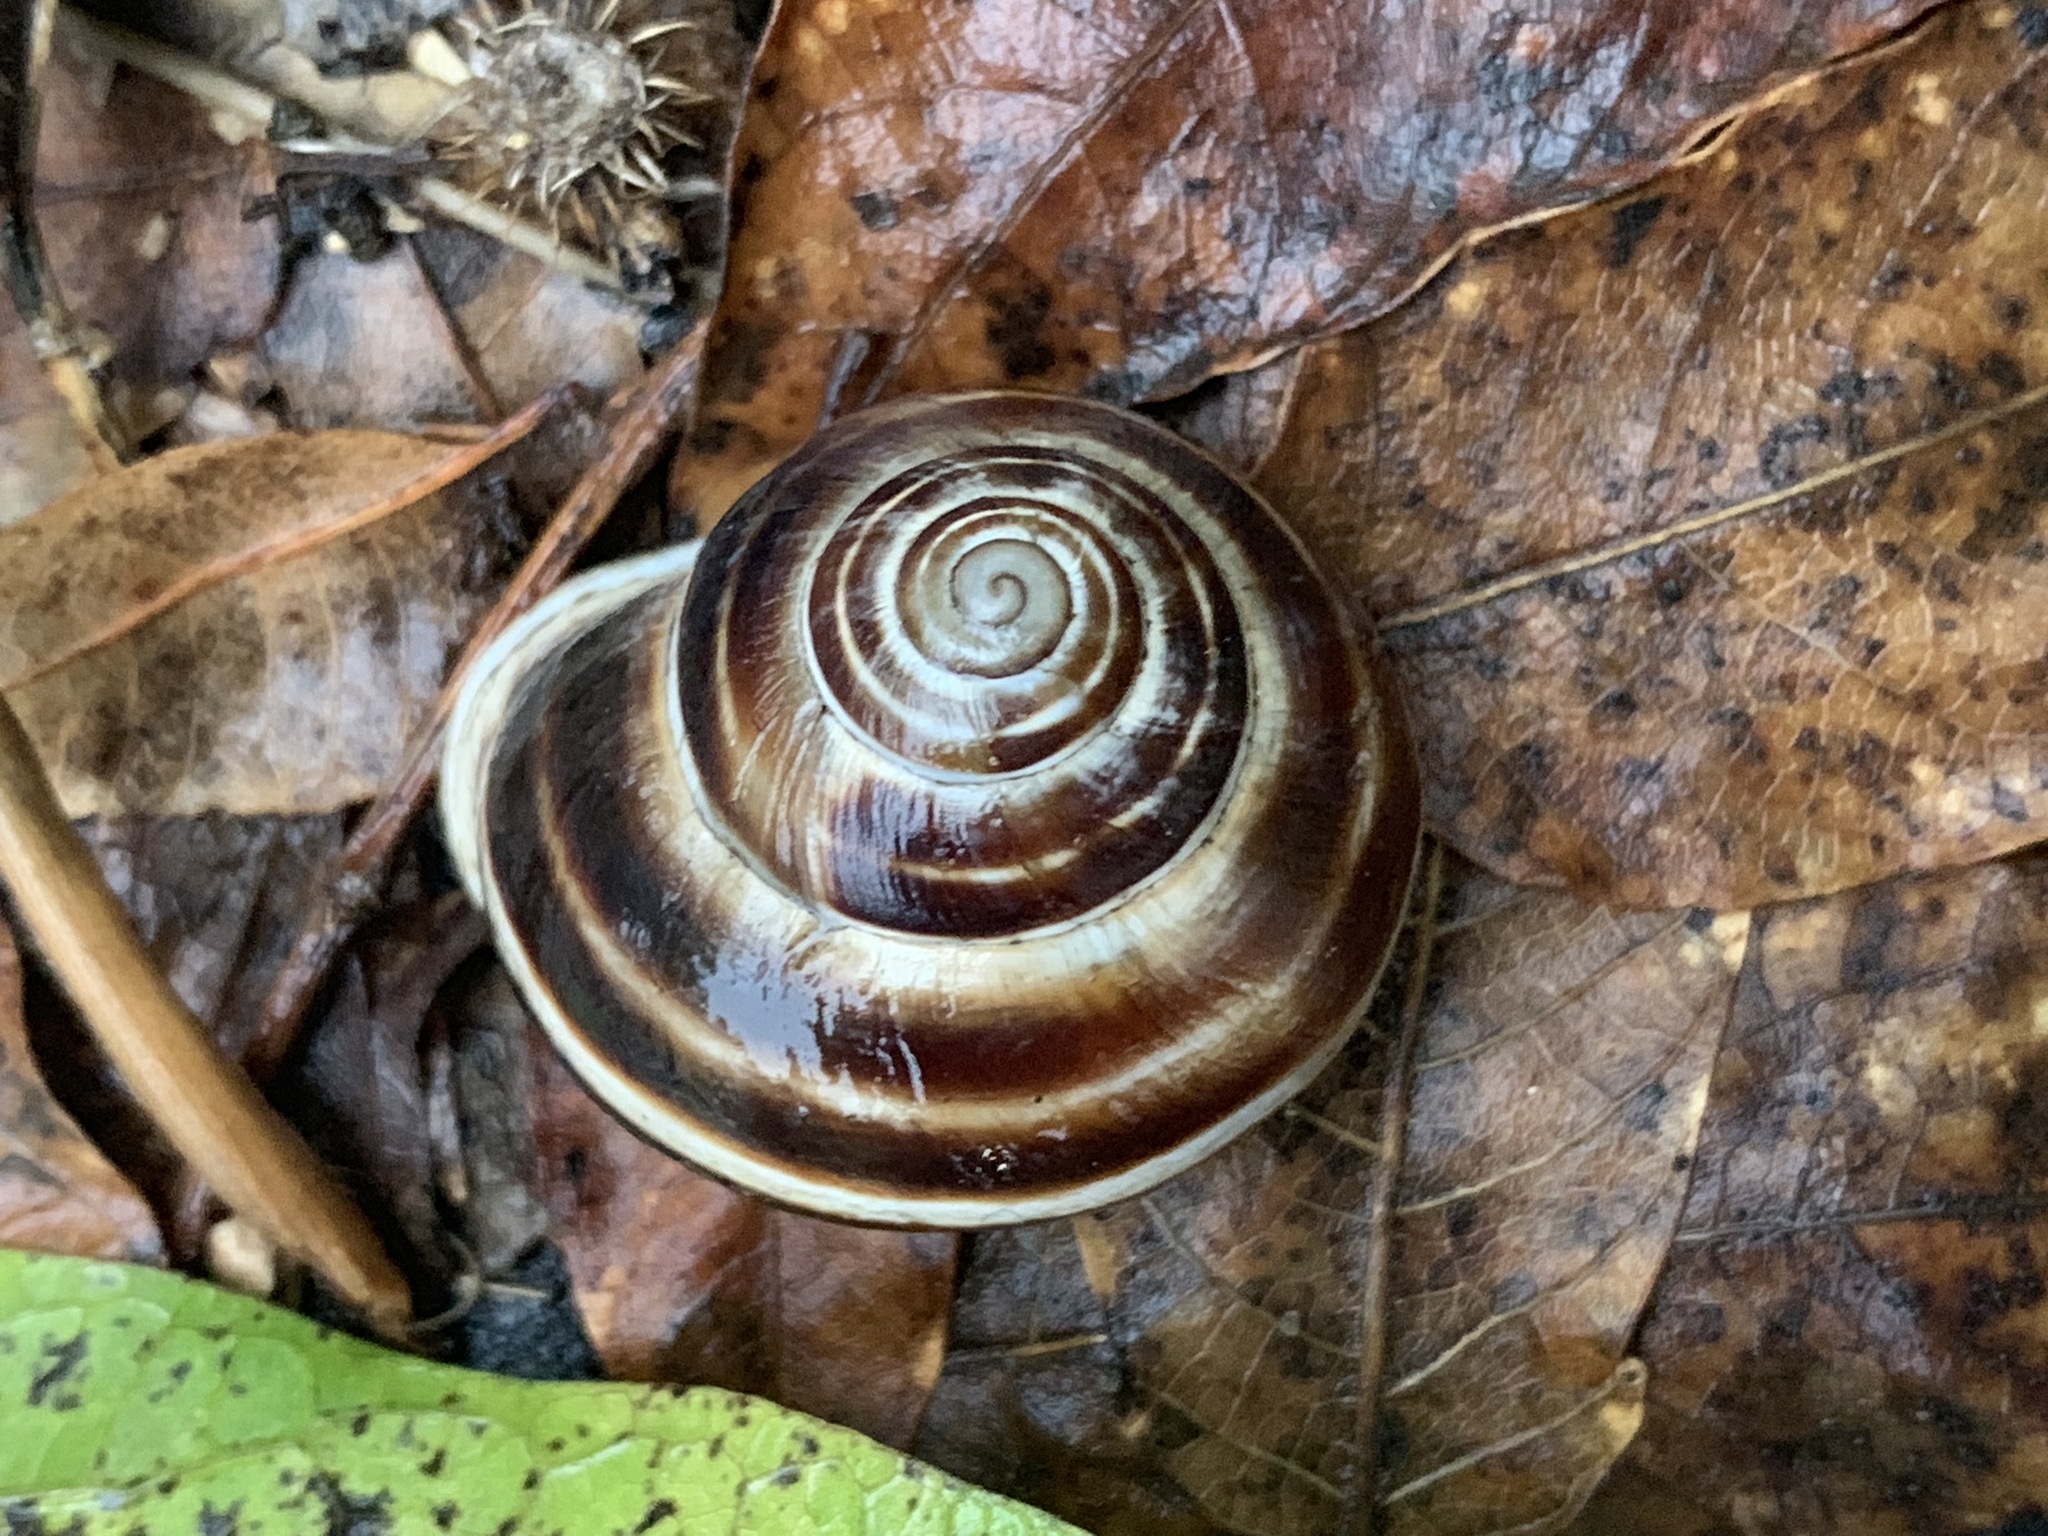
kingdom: Animalia
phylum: Mollusca
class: Gastropoda
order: Stylommatophora
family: Helicidae
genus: Otala
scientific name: Otala lactea
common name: Milk snail
